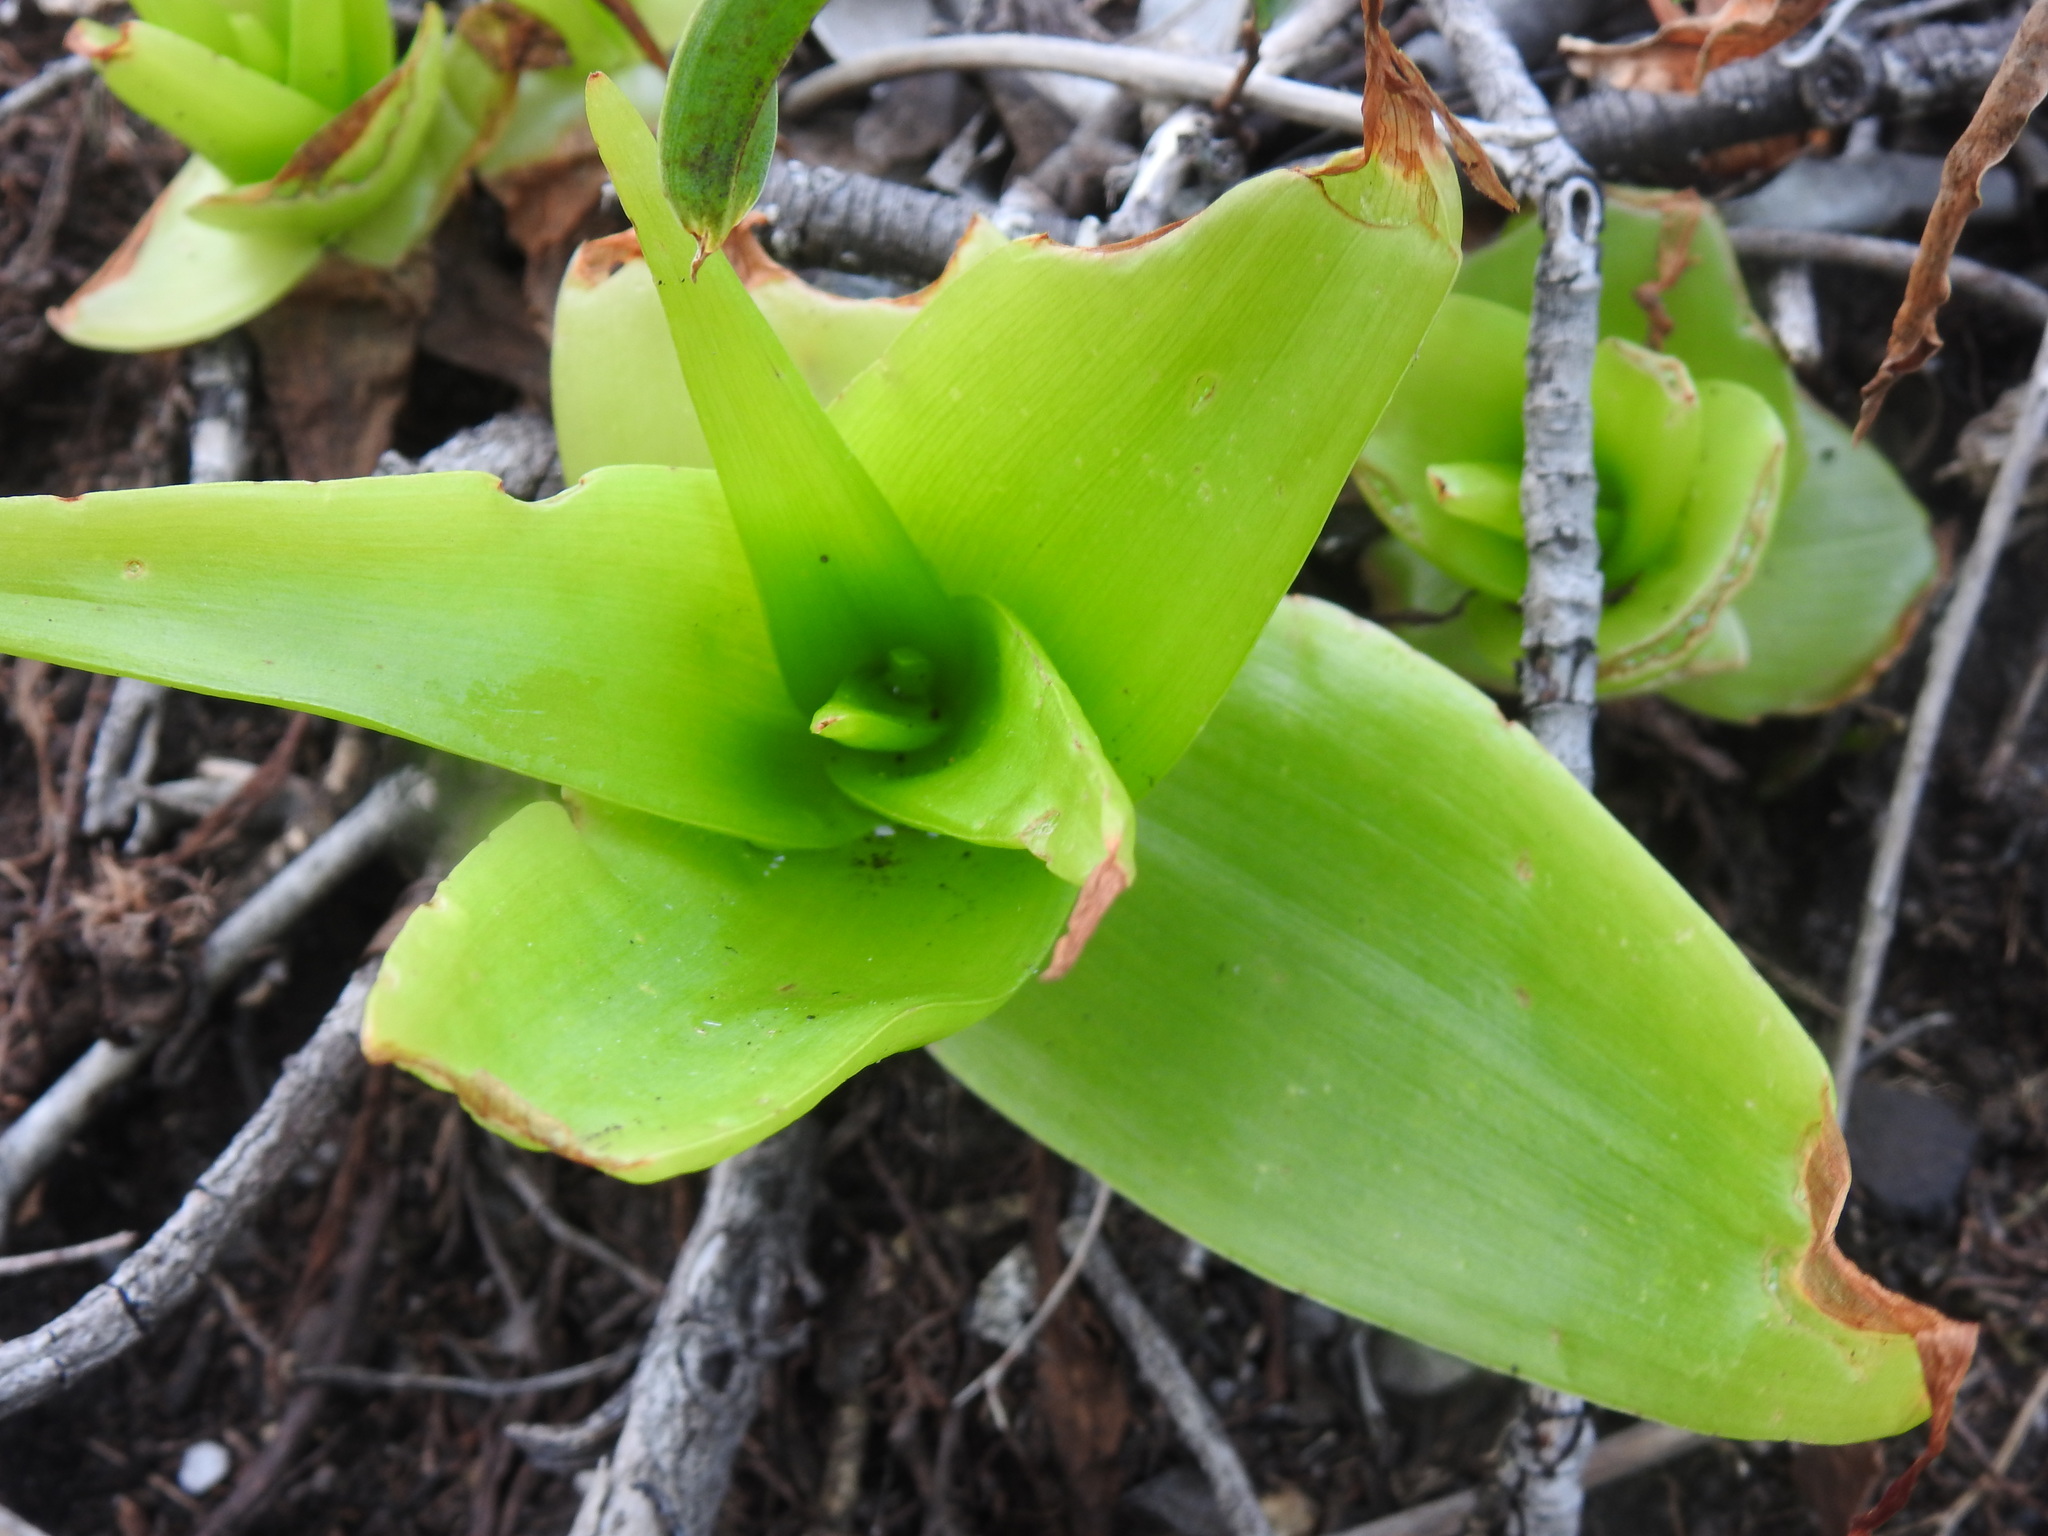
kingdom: Plantae
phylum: Tracheophyta
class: Liliopsida
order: Asparagales
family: Asphodelaceae
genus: Bulbine
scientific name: Bulbine latifolia
